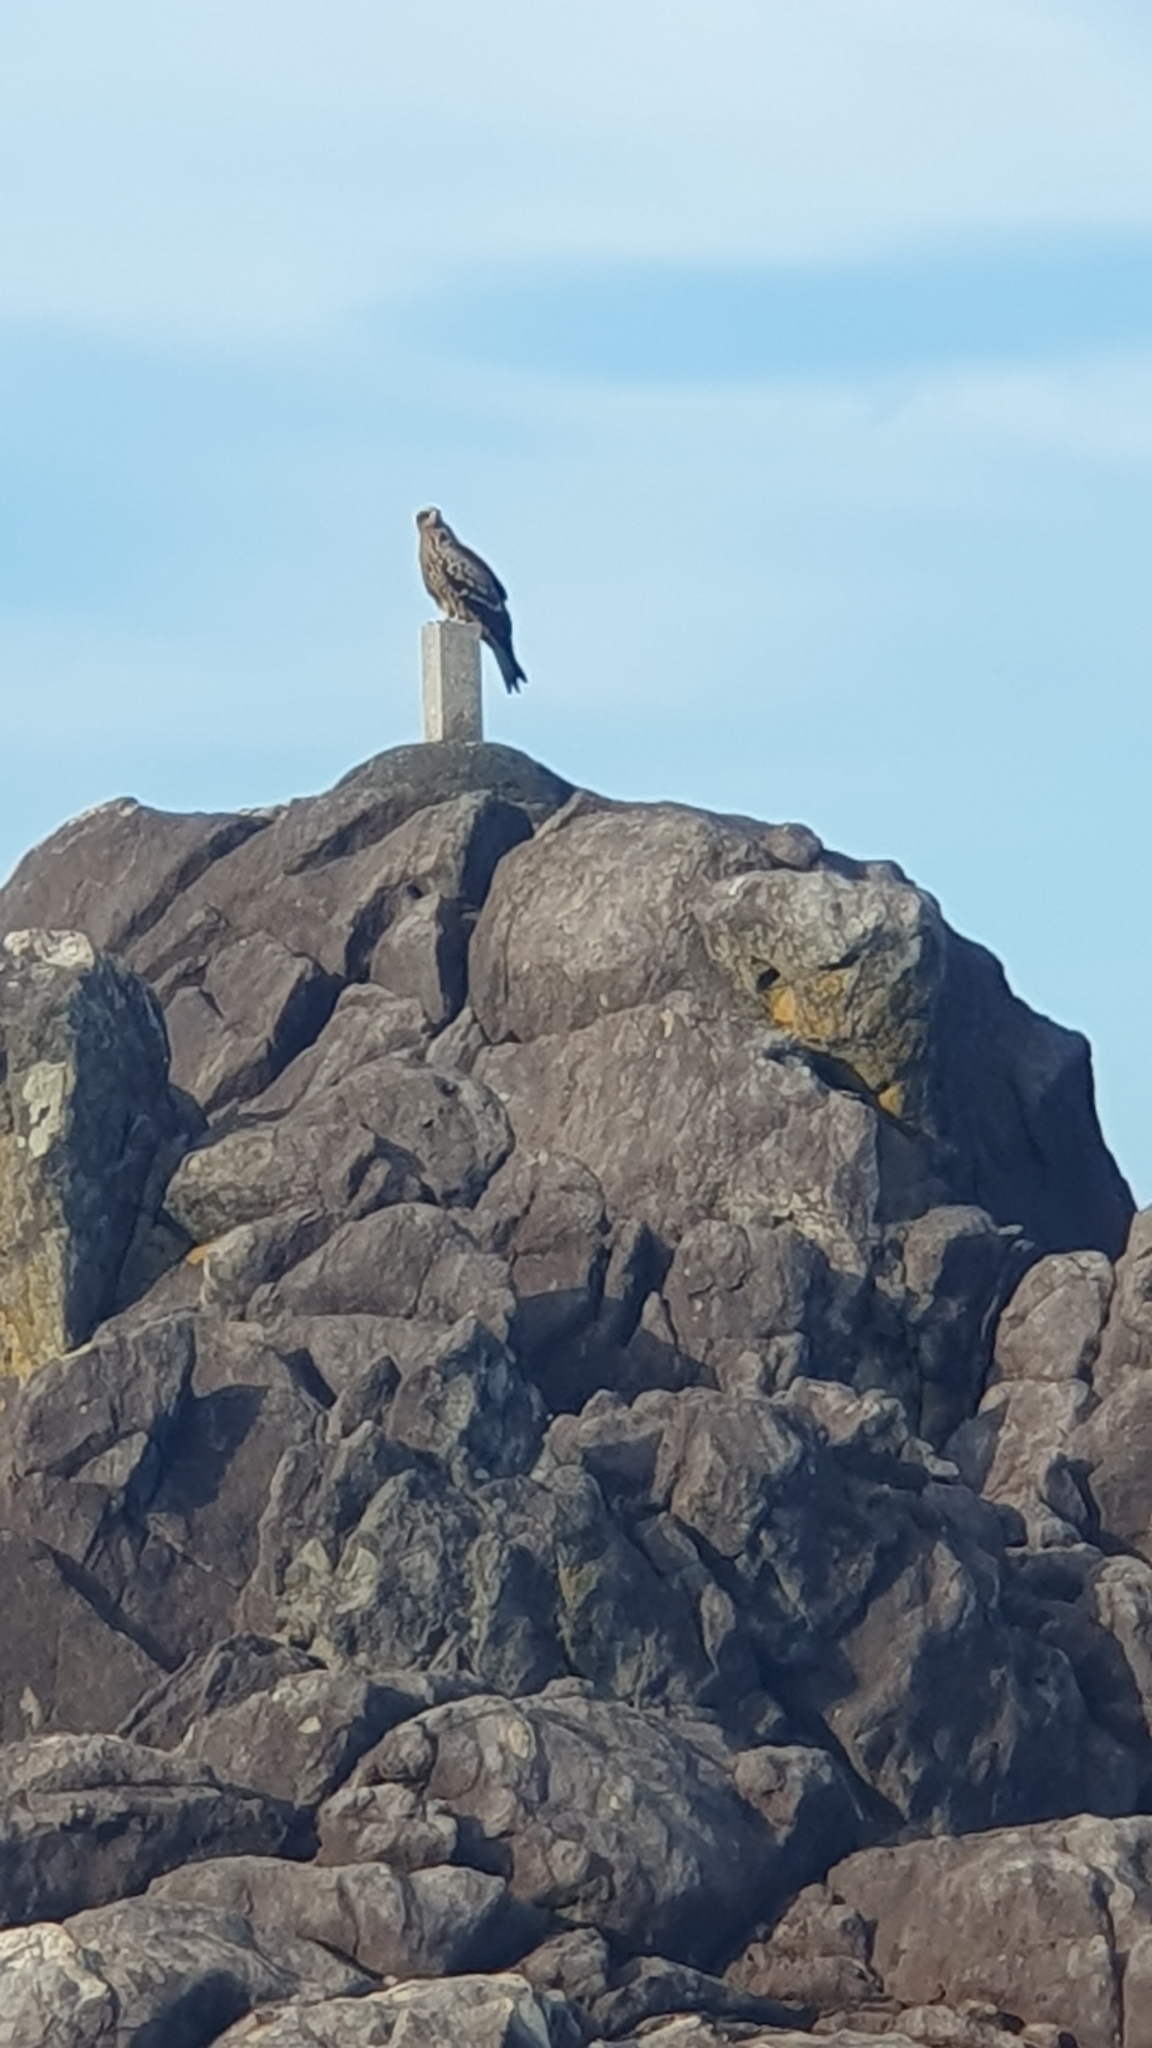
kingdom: Animalia
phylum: Chordata
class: Aves
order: Accipitriformes
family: Accipitridae
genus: Milvus
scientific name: Milvus migrans
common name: Black kite
